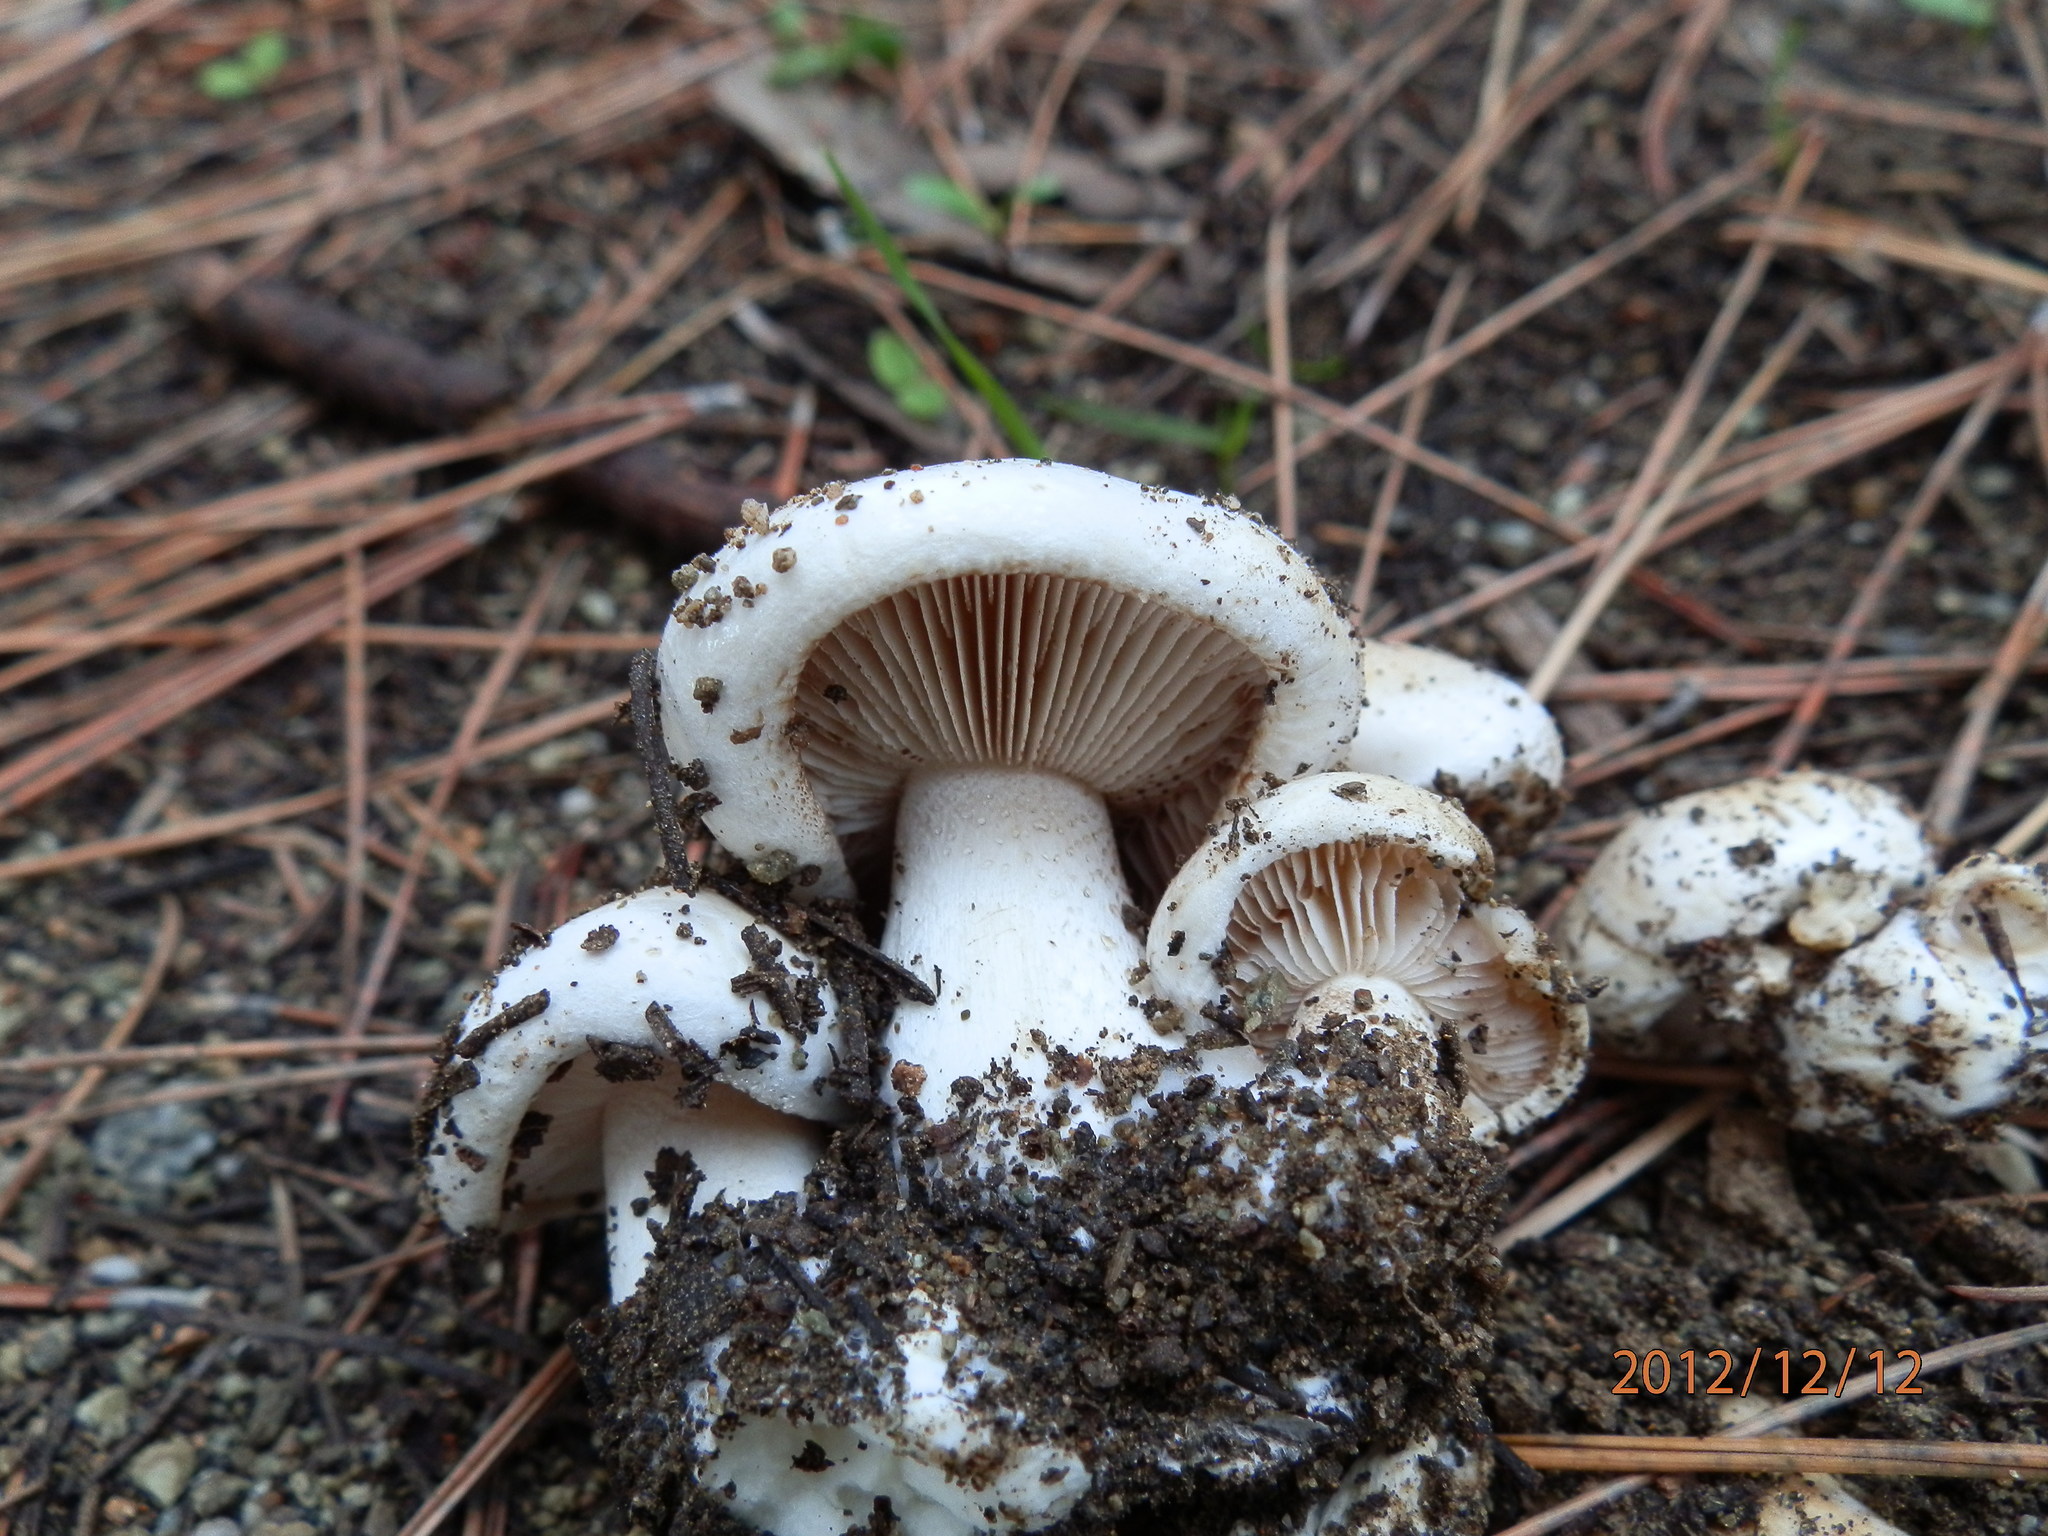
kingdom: Fungi
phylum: Basidiomycota
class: Agaricomycetes
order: Agaricales
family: Hymenogastraceae
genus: Hebeloma
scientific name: Hebeloma crustuliniforme
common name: Poison pie
